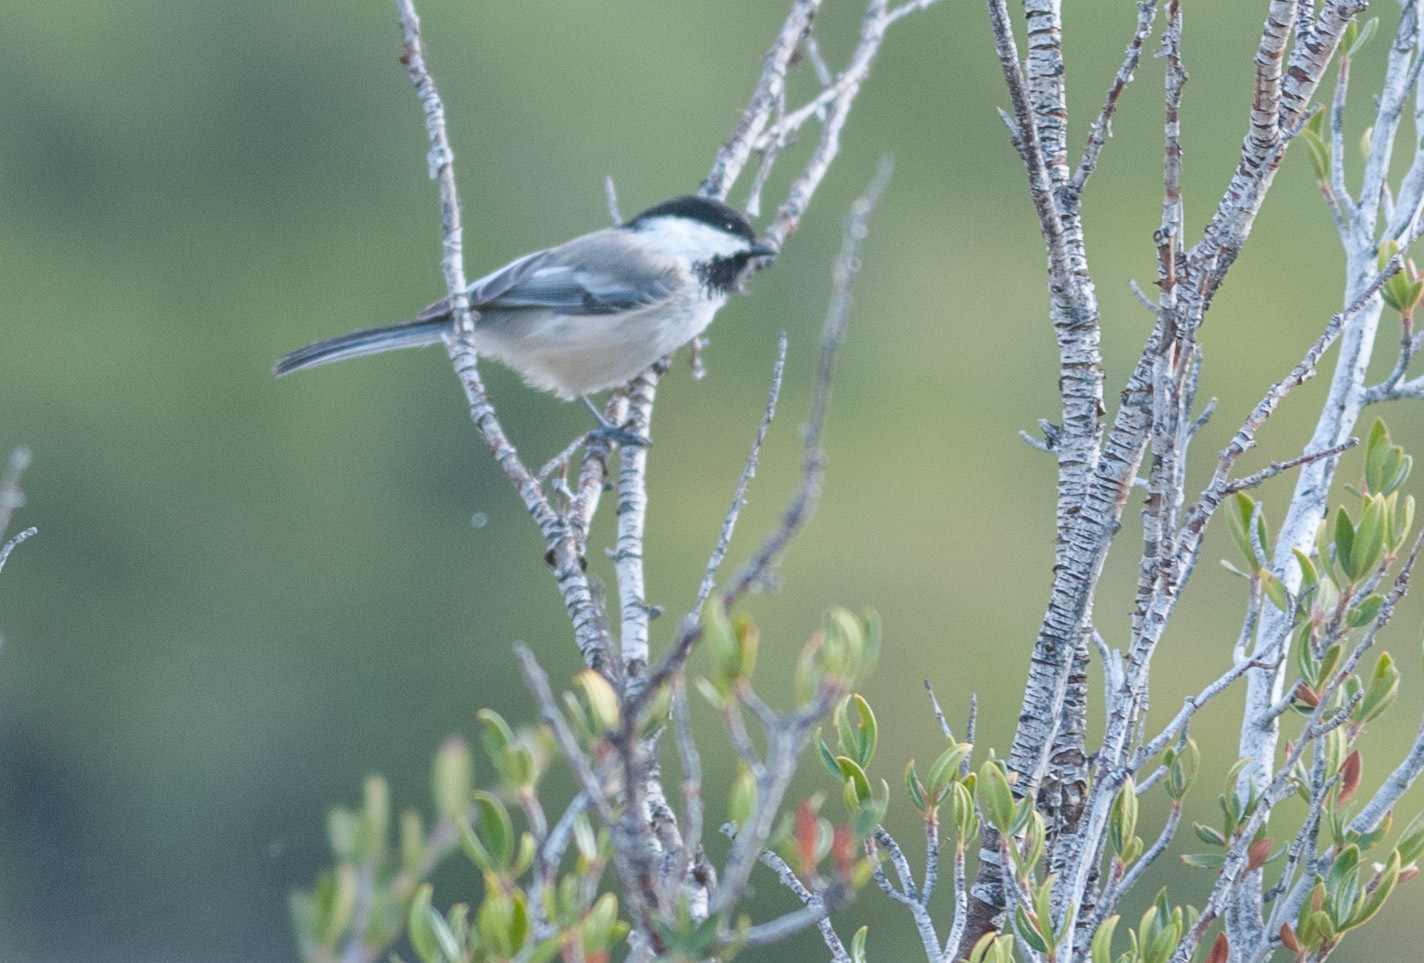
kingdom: Animalia
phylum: Chordata
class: Aves
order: Passeriformes
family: Paridae
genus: Poecile
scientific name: Poecile atricapillus
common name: Black-capped chickadee
